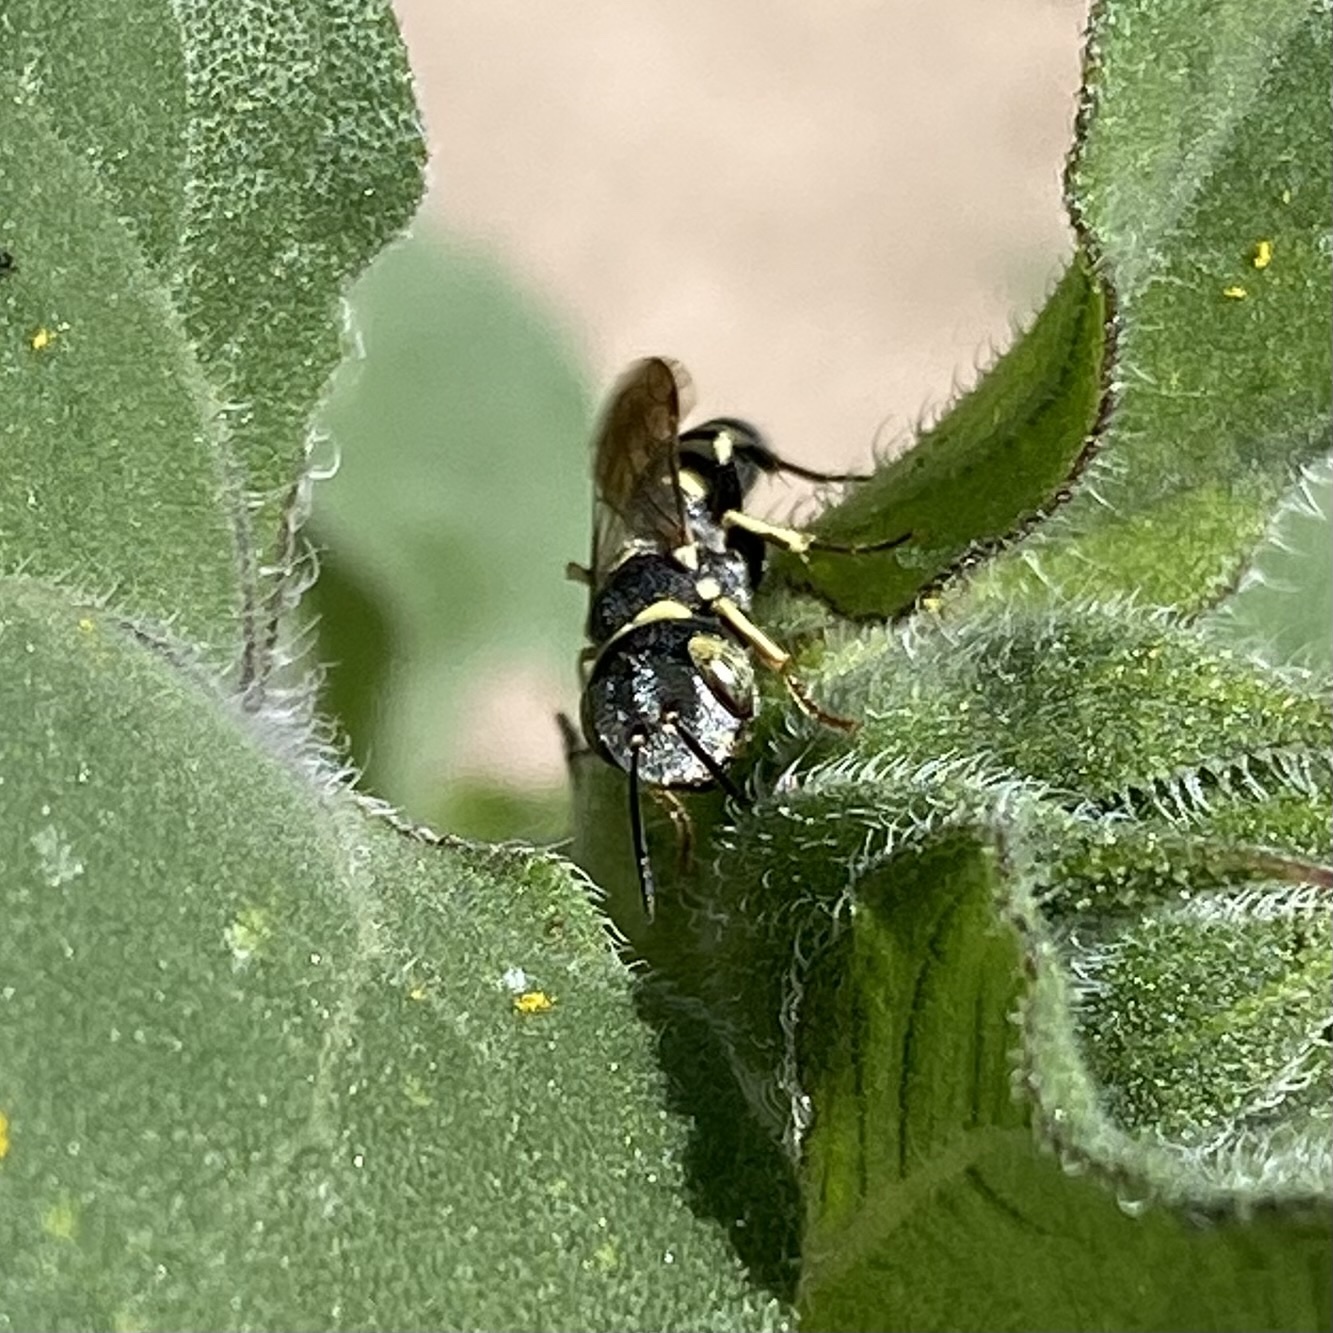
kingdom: Animalia
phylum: Arthropoda
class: Insecta
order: Hymenoptera
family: Crabronidae
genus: Clypeadon
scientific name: Clypeadon
